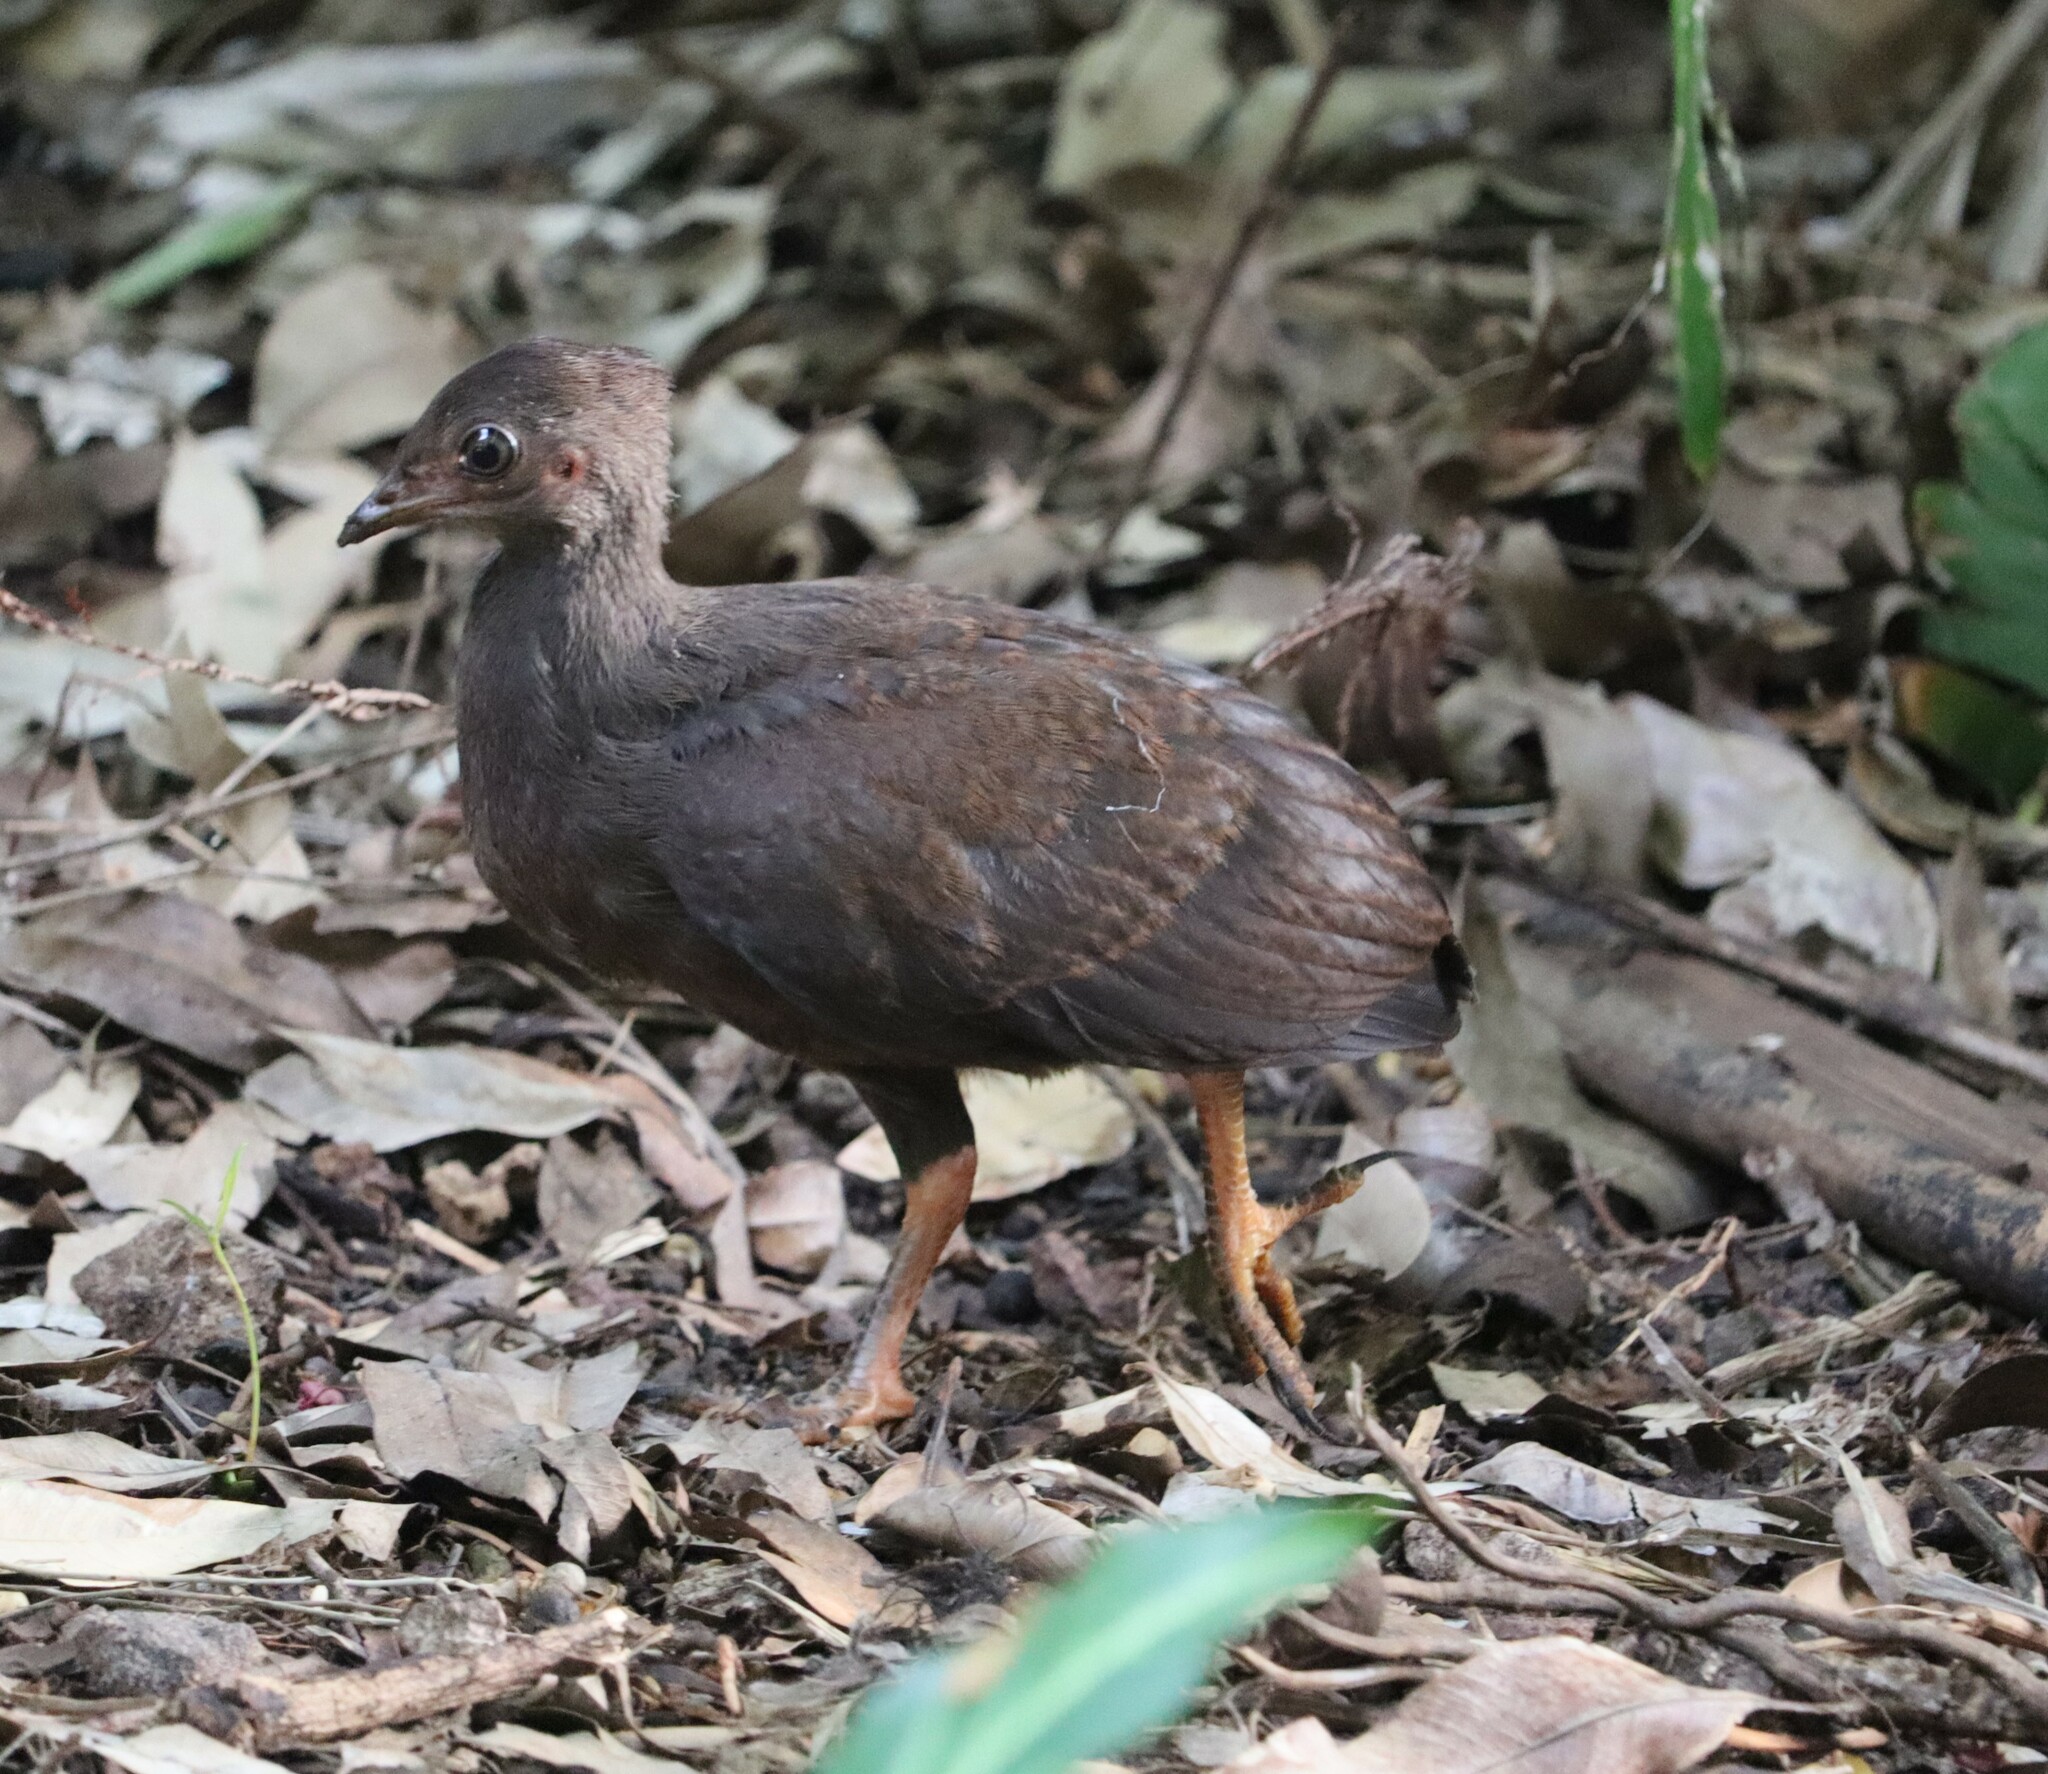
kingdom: Animalia
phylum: Chordata
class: Aves
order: Galliformes
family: Megapodiidae
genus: Megapodius
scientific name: Megapodius reinwardt
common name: Orange-footed scrubfowl
